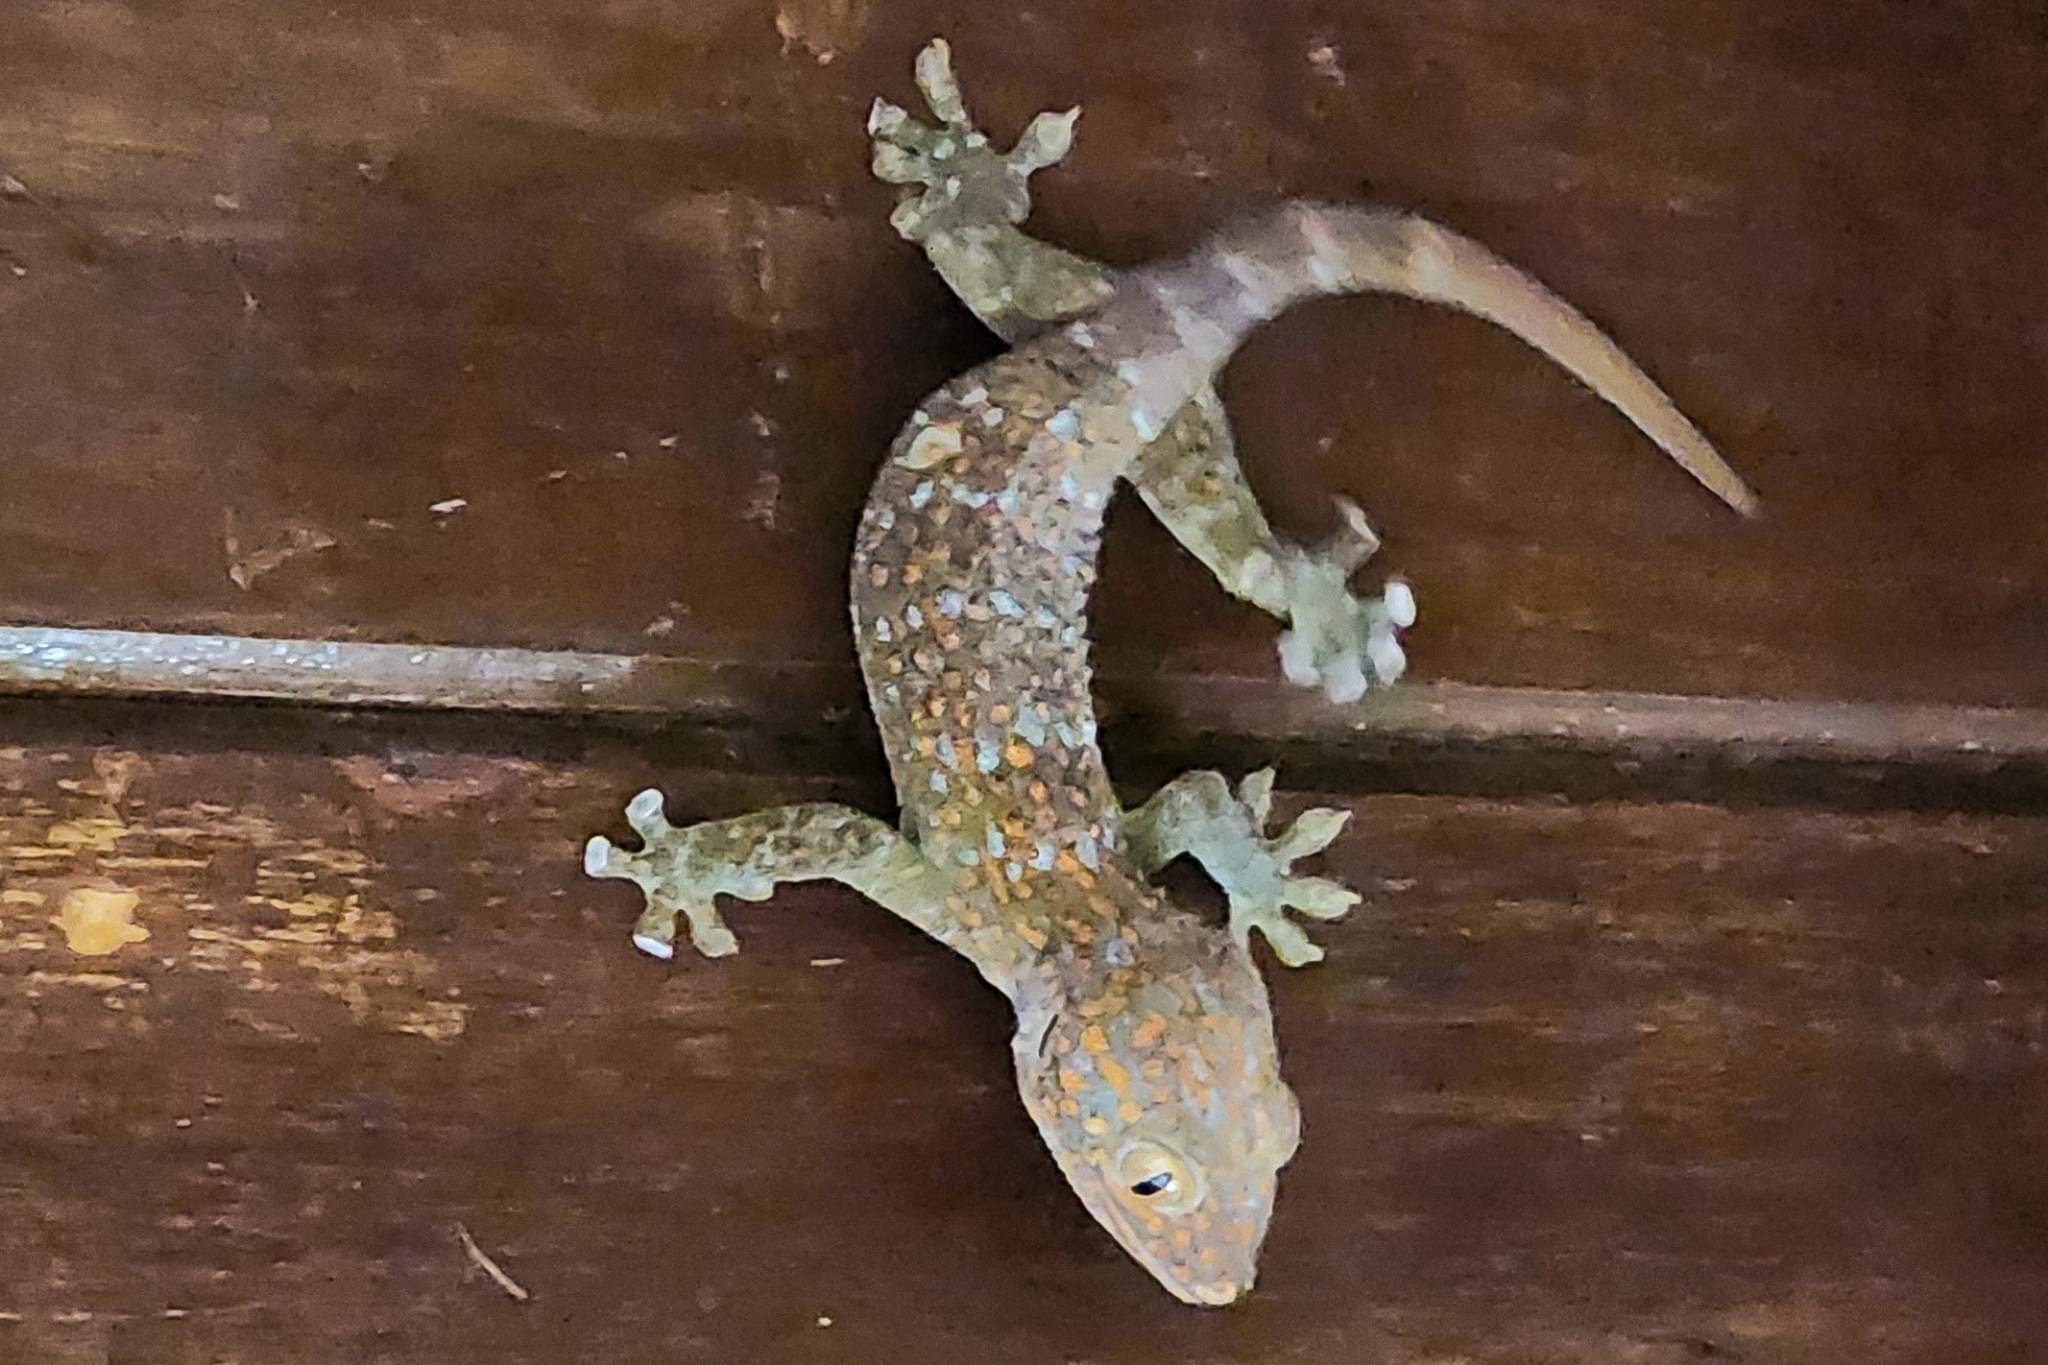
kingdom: Animalia
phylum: Chordata
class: Squamata
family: Gekkonidae
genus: Gekko
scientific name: Gekko gecko
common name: Tokay gecko
